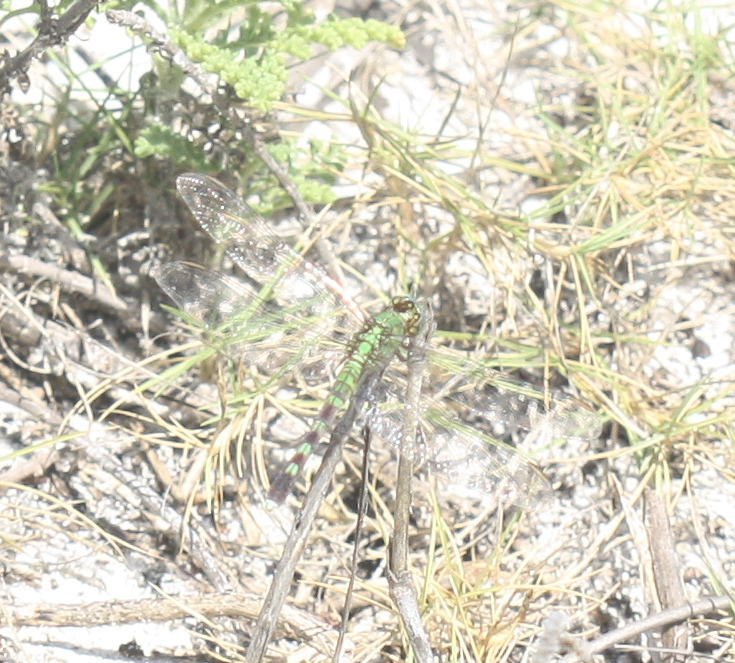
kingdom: Animalia
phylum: Arthropoda
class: Insecta
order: Odonata
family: Libellulidae
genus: Erythemis
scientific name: Erythemis simplicicollis
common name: Eastern pondhawk
